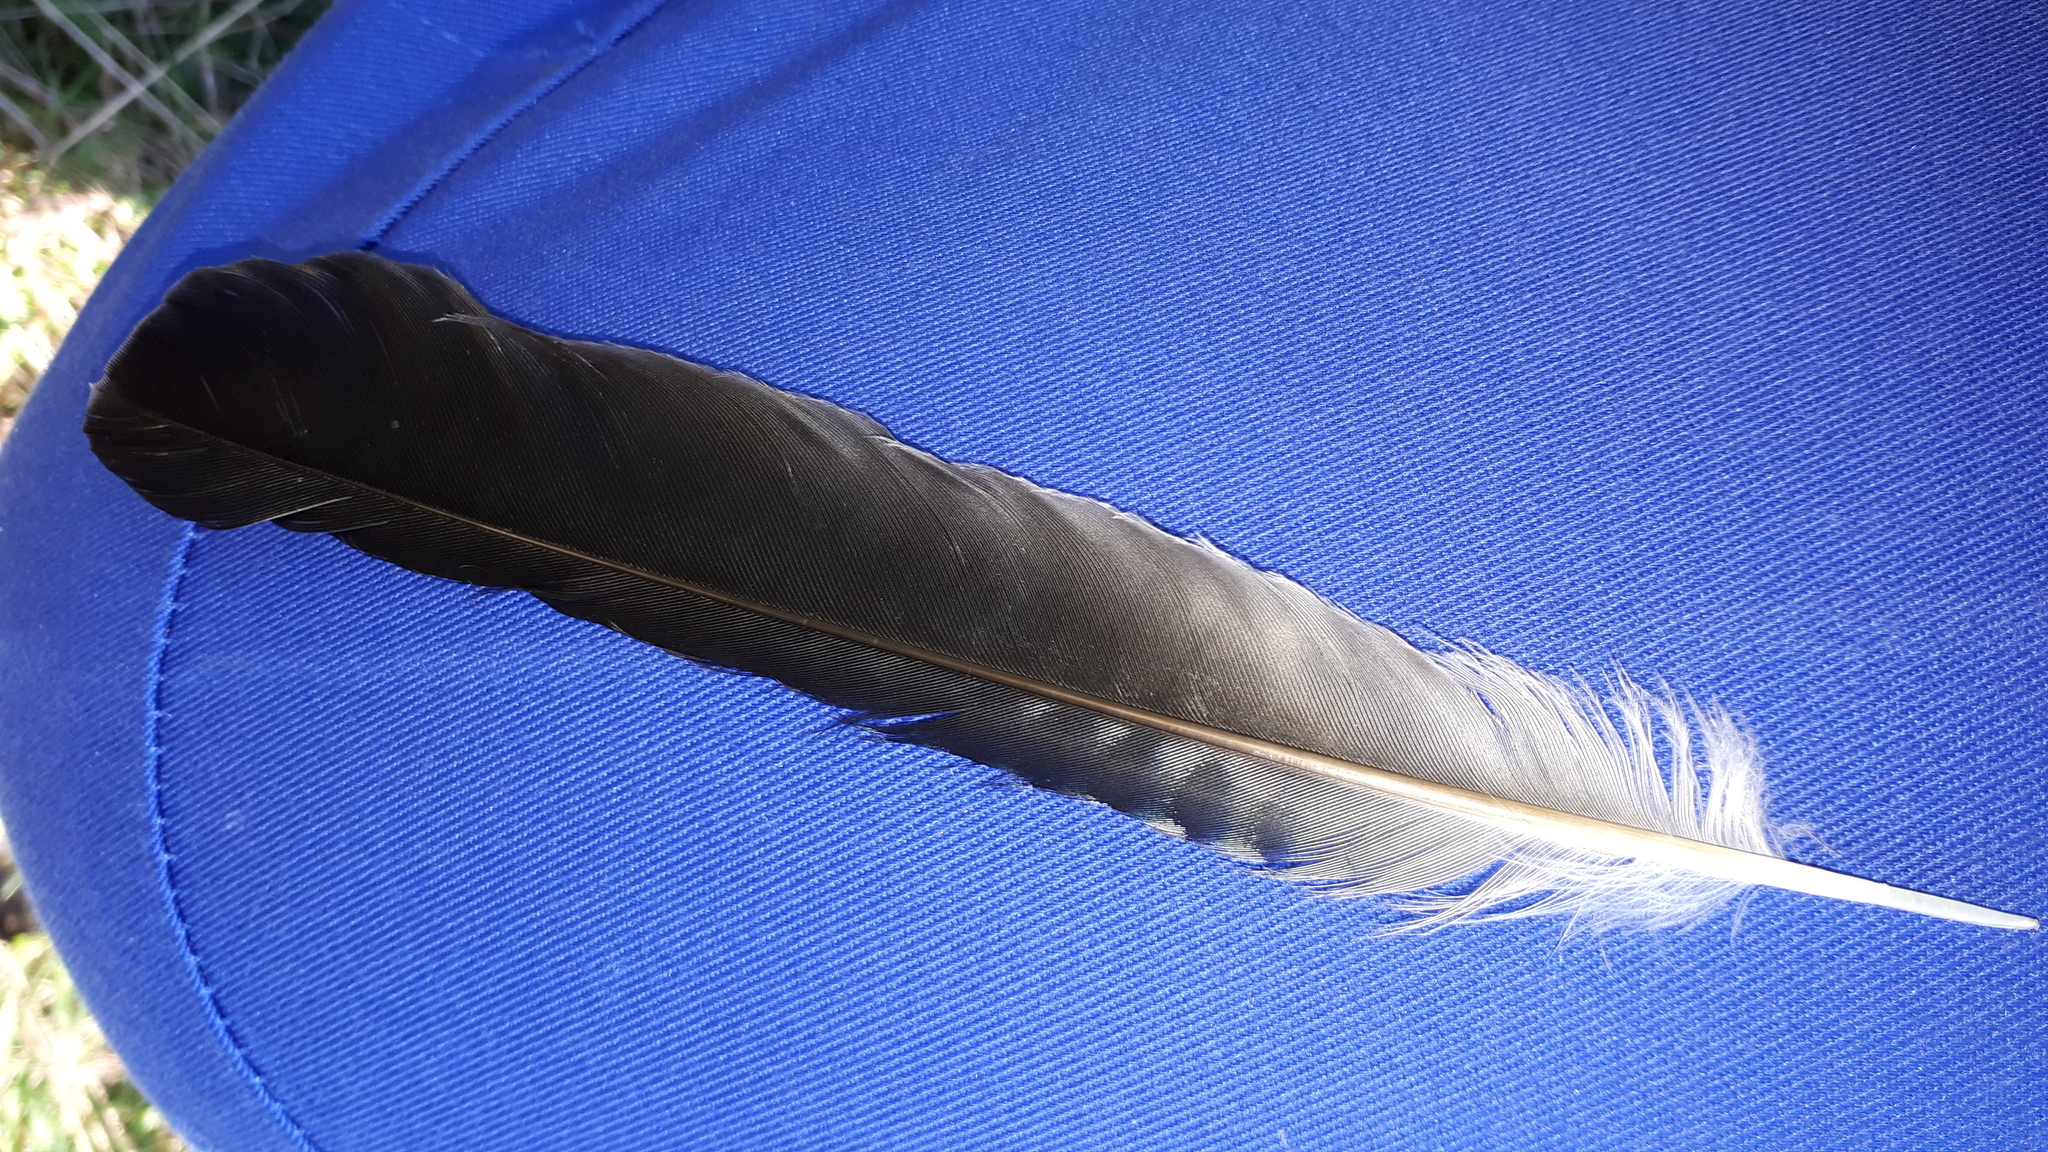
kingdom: Animalia
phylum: Chordata
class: Aves
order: Passeriformes
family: Corvidae
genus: Garrulus
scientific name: Garrulus glandarius
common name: Eurasian jay
